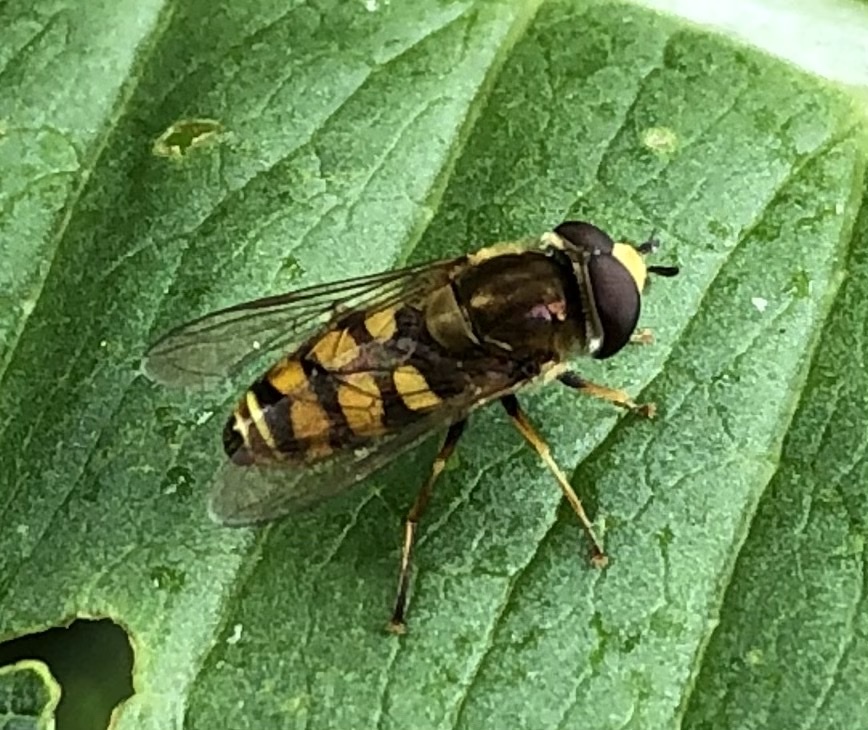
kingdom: Animalia
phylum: Arthropoda
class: Insecta
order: Diptera
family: Syrphidae
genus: Eupeodes
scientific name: Eupeodes corollae
